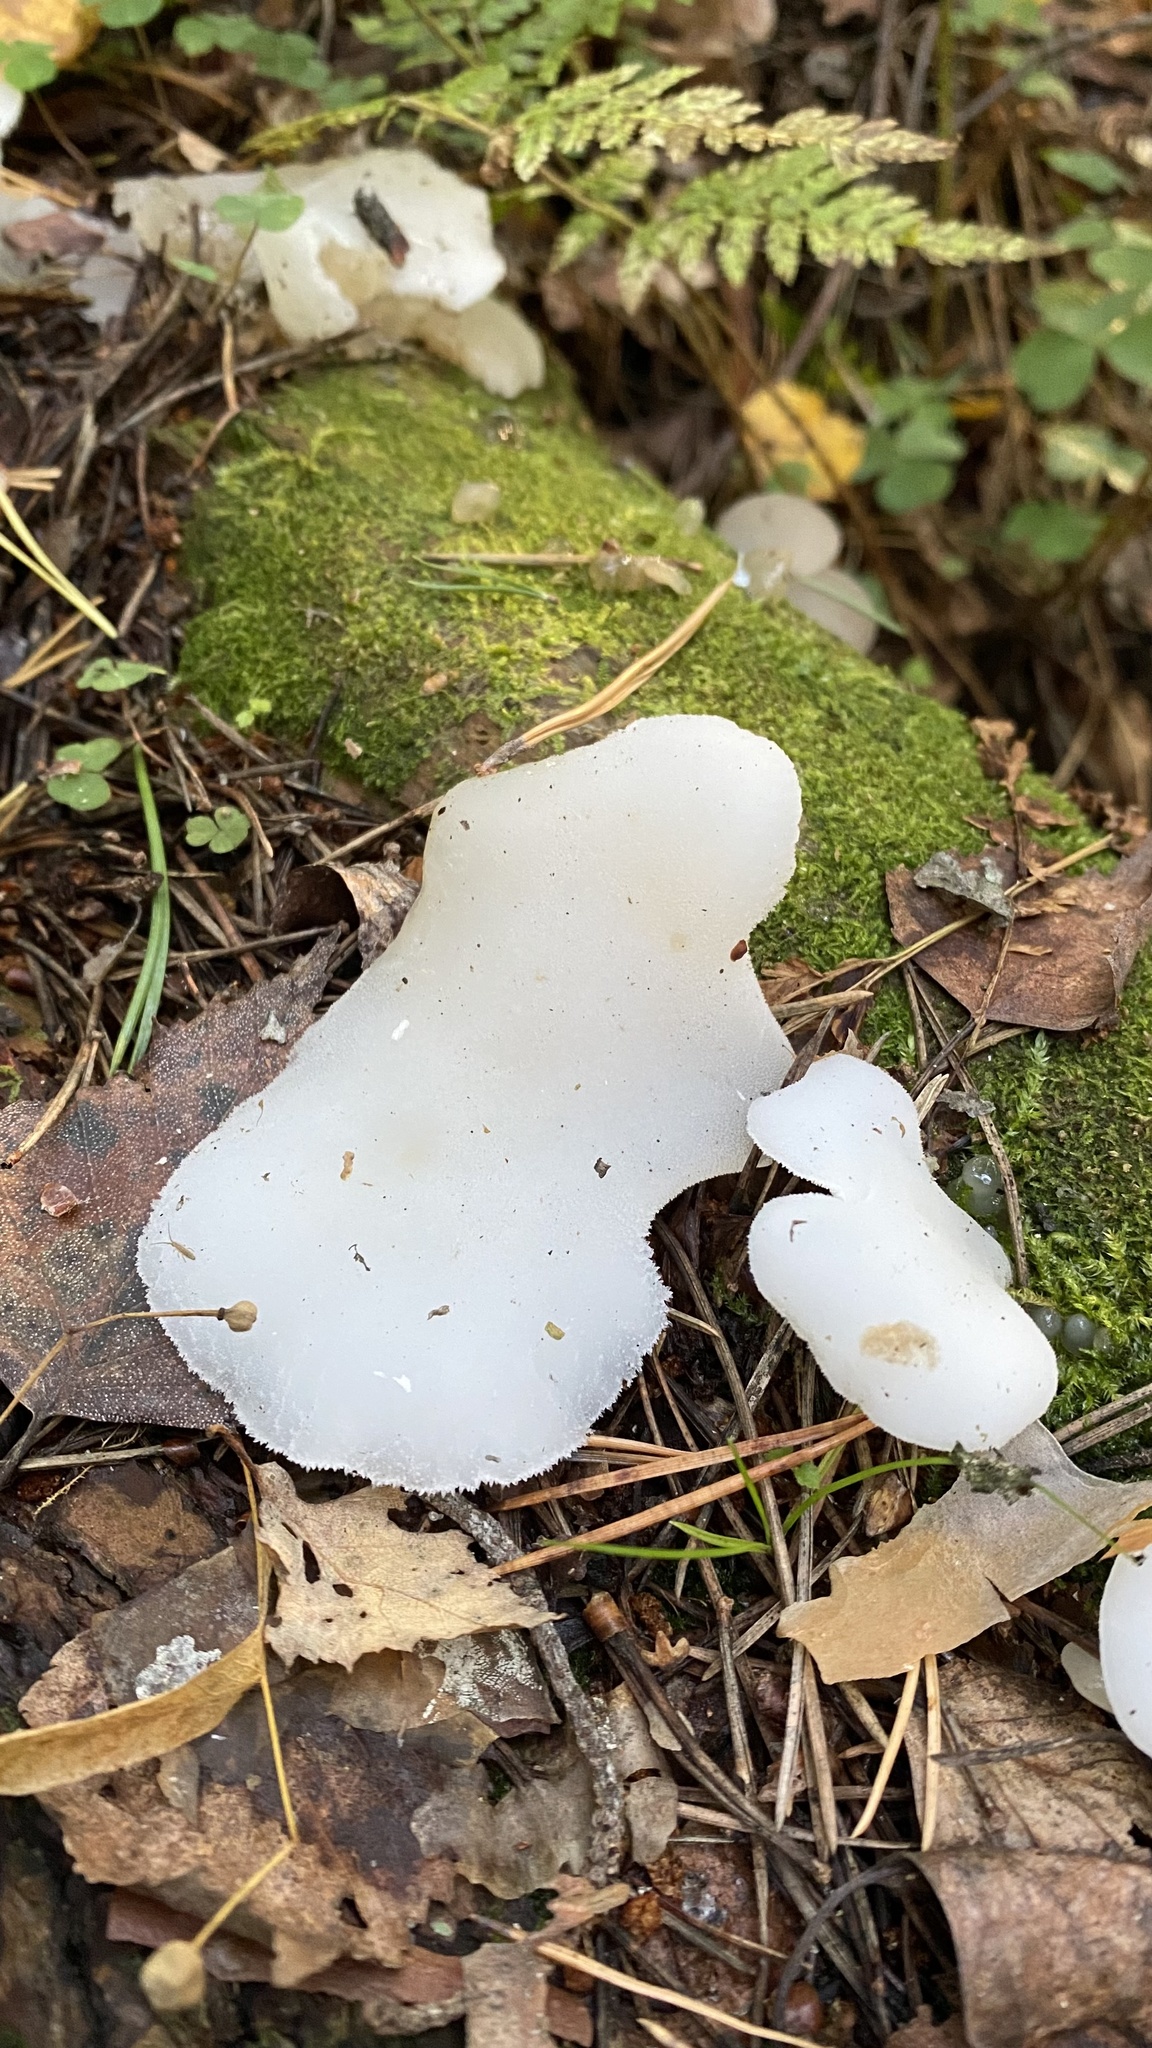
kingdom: Fungi
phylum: Basidiomycota
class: Agaricomycetes
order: Auriculariales
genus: Pseudohydnum
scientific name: Pseudohydnum gelatinosum
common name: Jelly tongue
